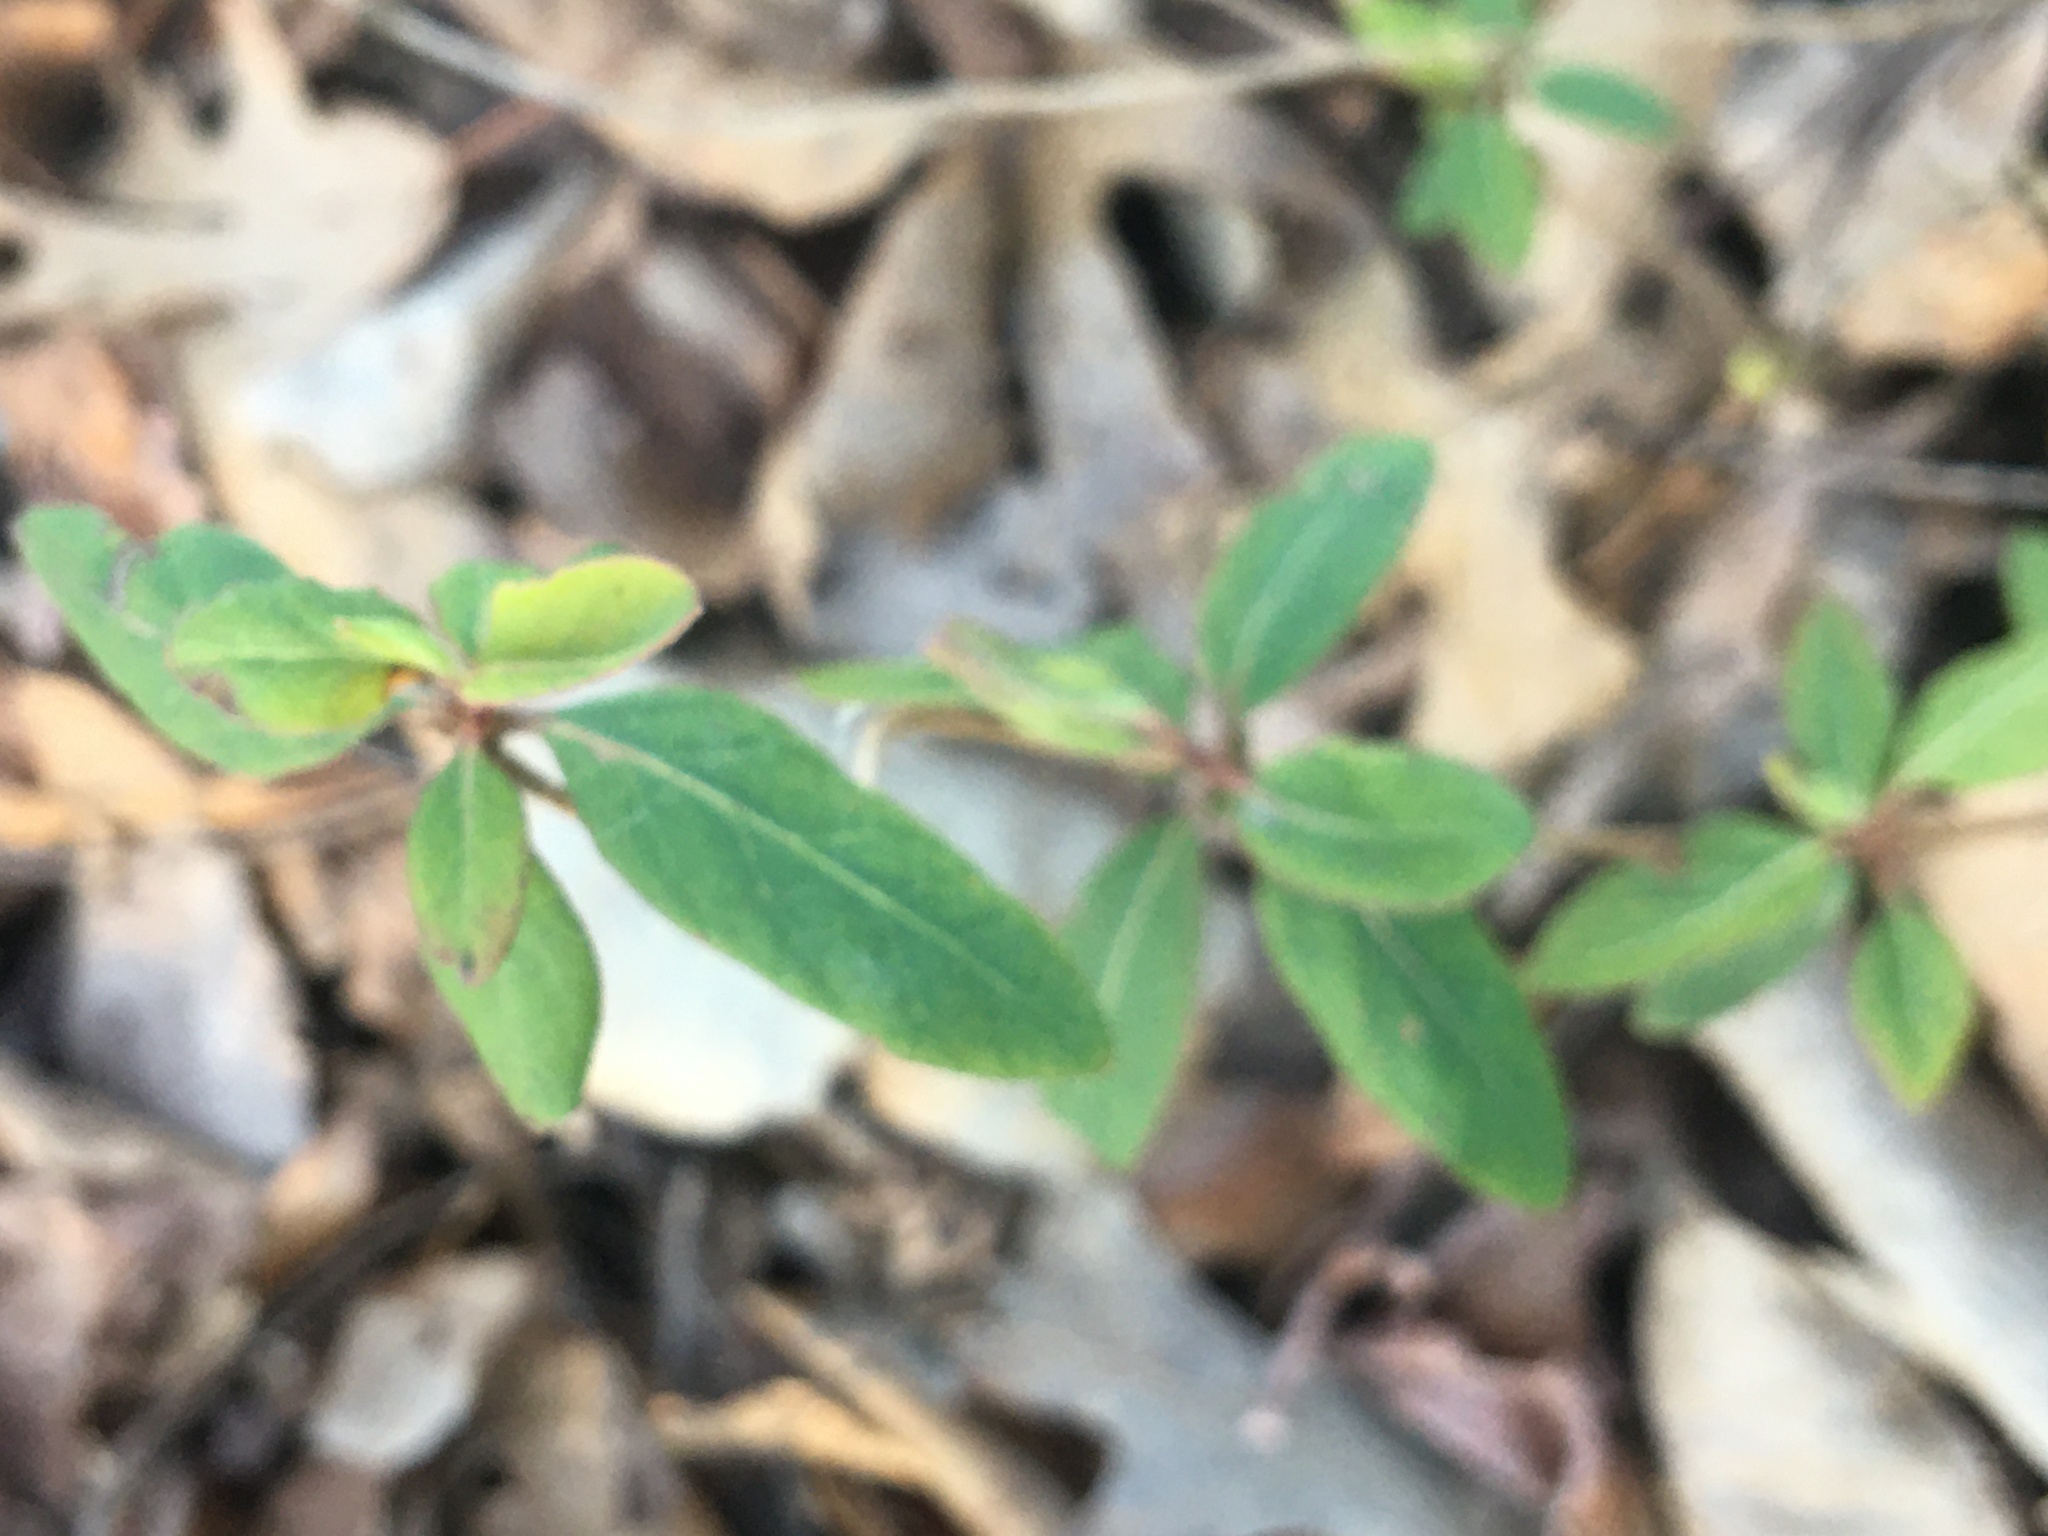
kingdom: Plantae
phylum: Tracheophyta
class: Magnoliopsida
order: Dipsacales
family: Caprifoliaceae
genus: Lonicera
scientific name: Lonicera japonica
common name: Japanese honeysuckle
